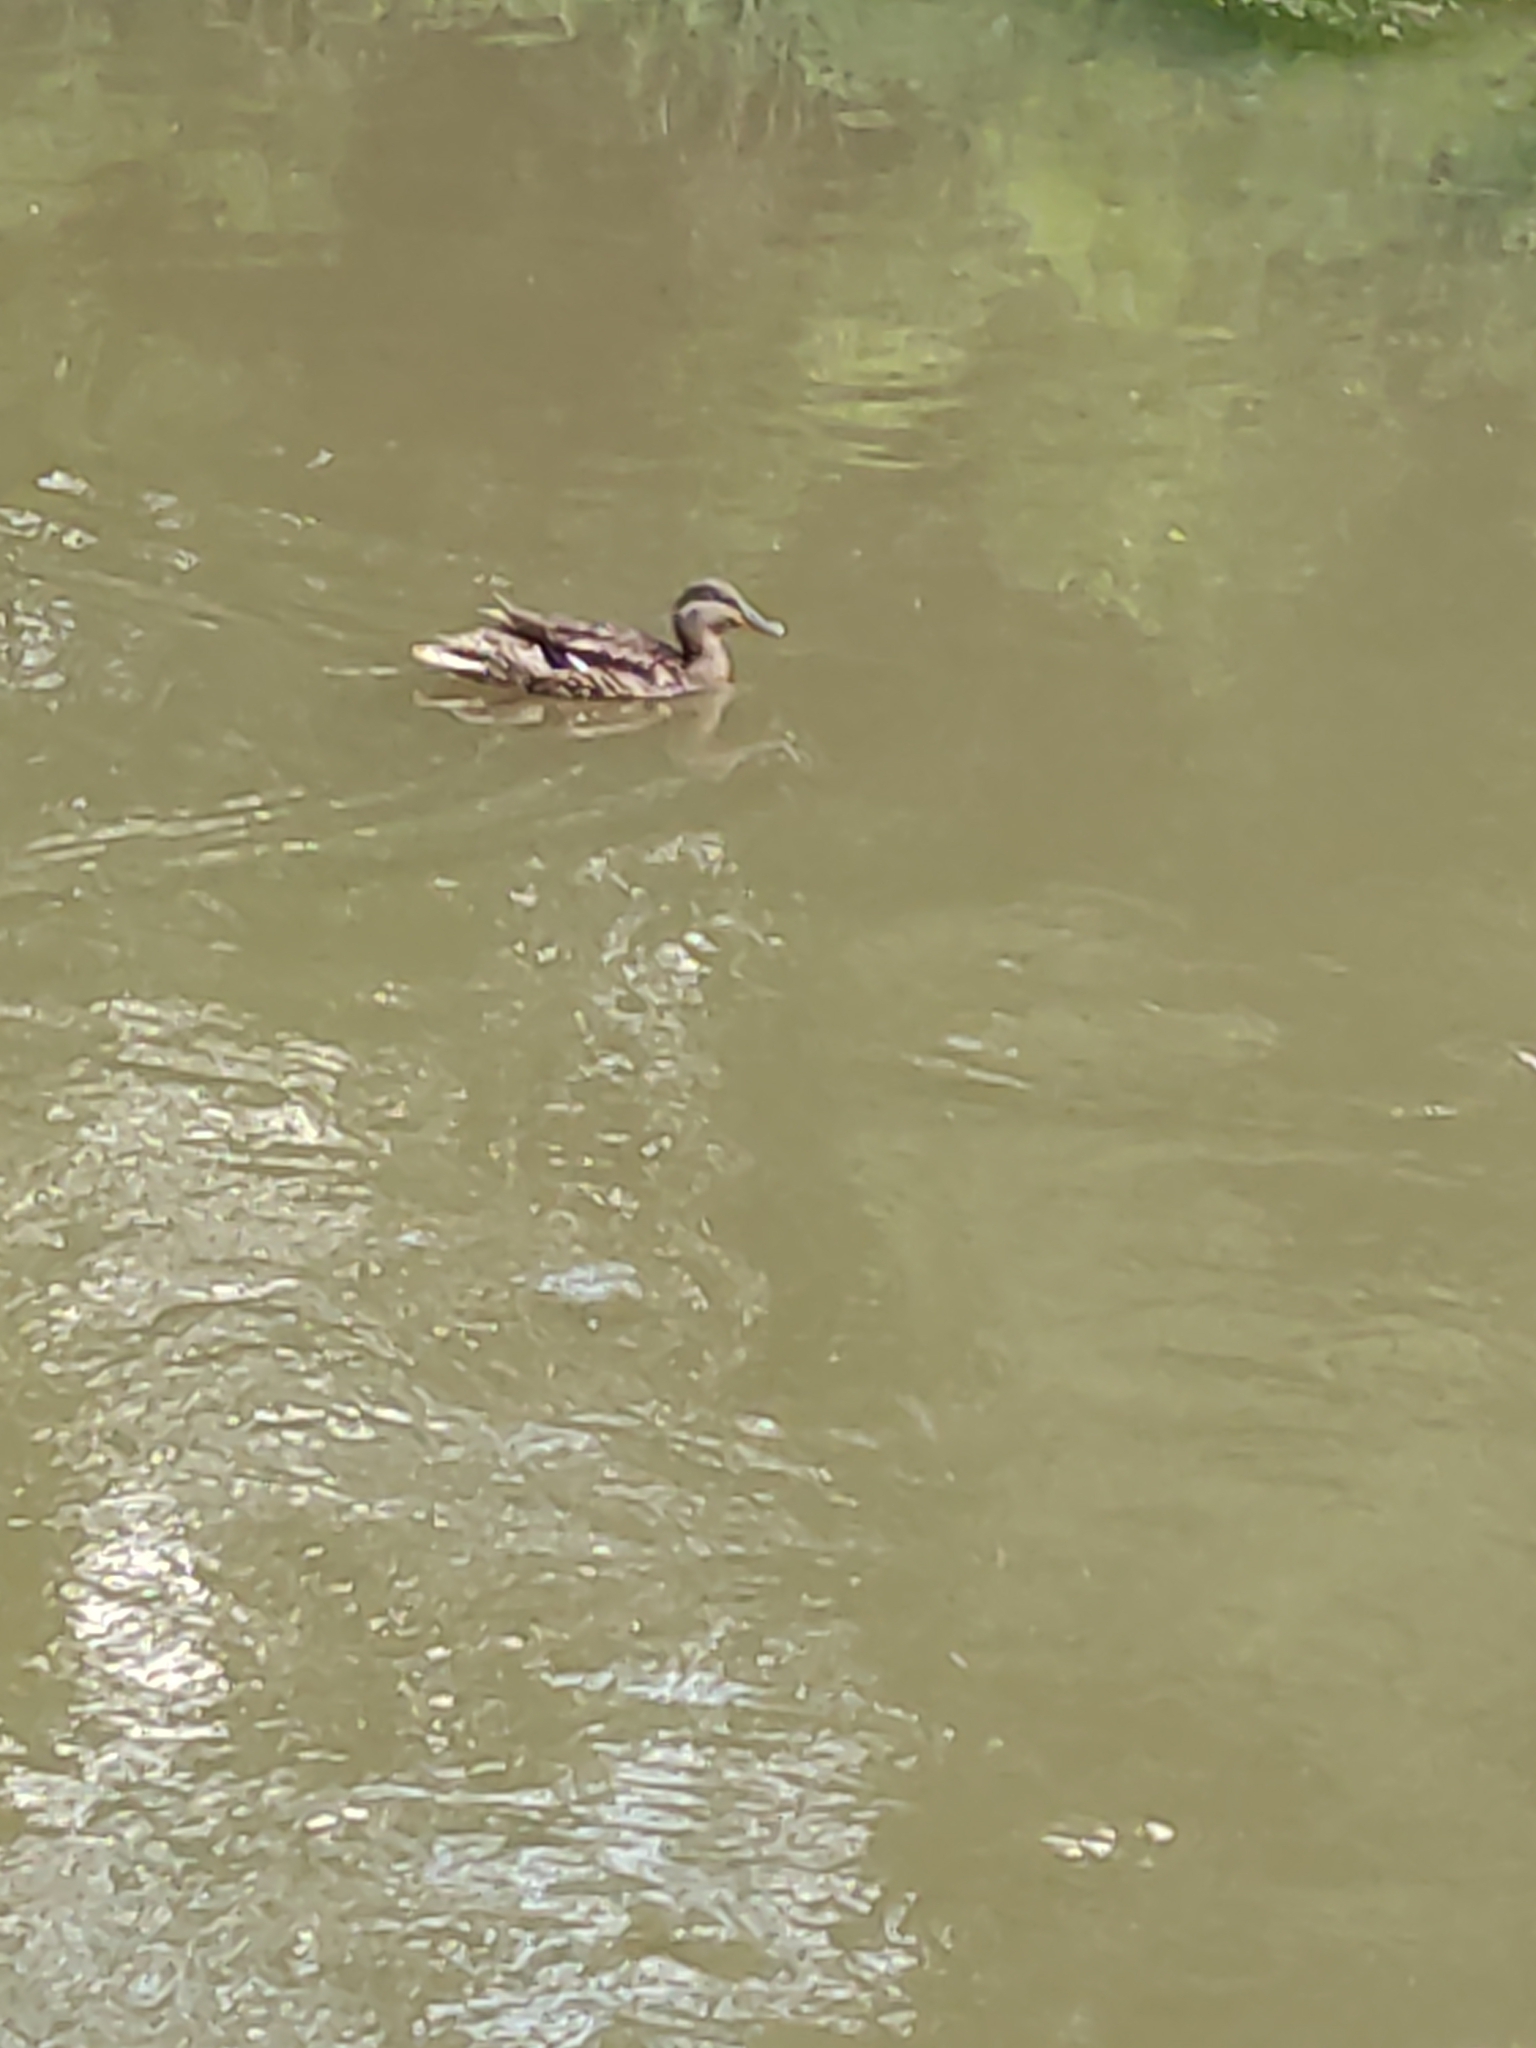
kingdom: Animalia
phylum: Chordata
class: Aves
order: Anseriformes
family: Anatidae
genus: Anas
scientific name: Anas platyrhynchos
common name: Mallard
